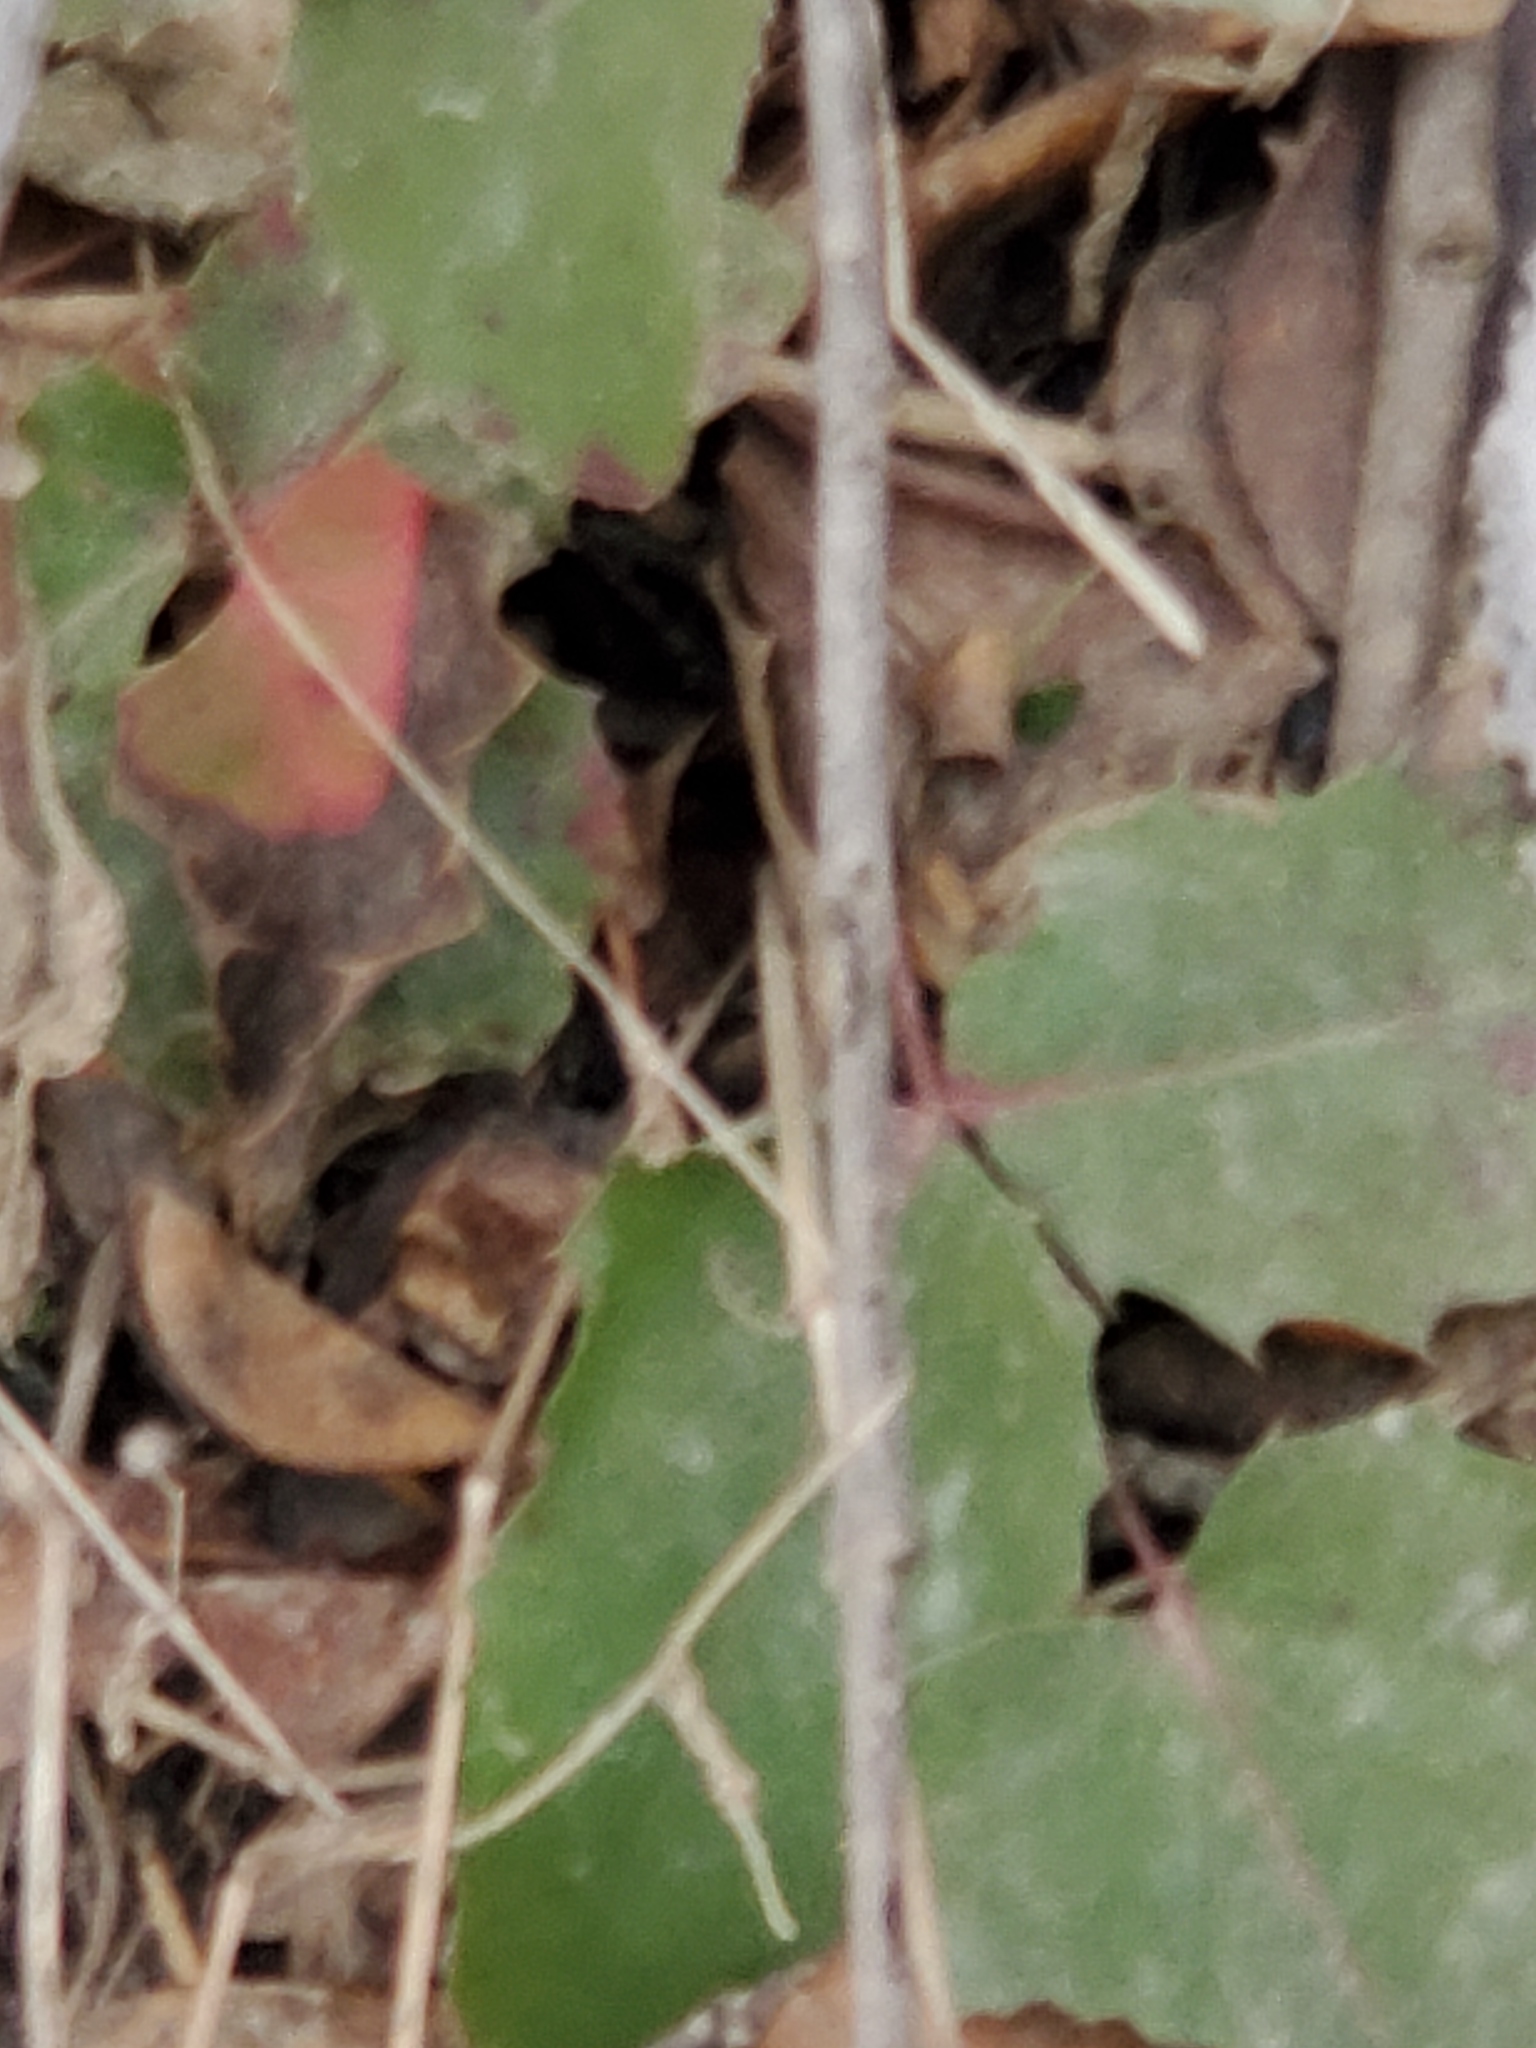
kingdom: Plantae
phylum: Tracheophyta
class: Magnoliopsida
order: Ranunculales
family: Berberidaceae
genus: Mahonia
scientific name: Mahonia repens
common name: Creeping oregon-grape
